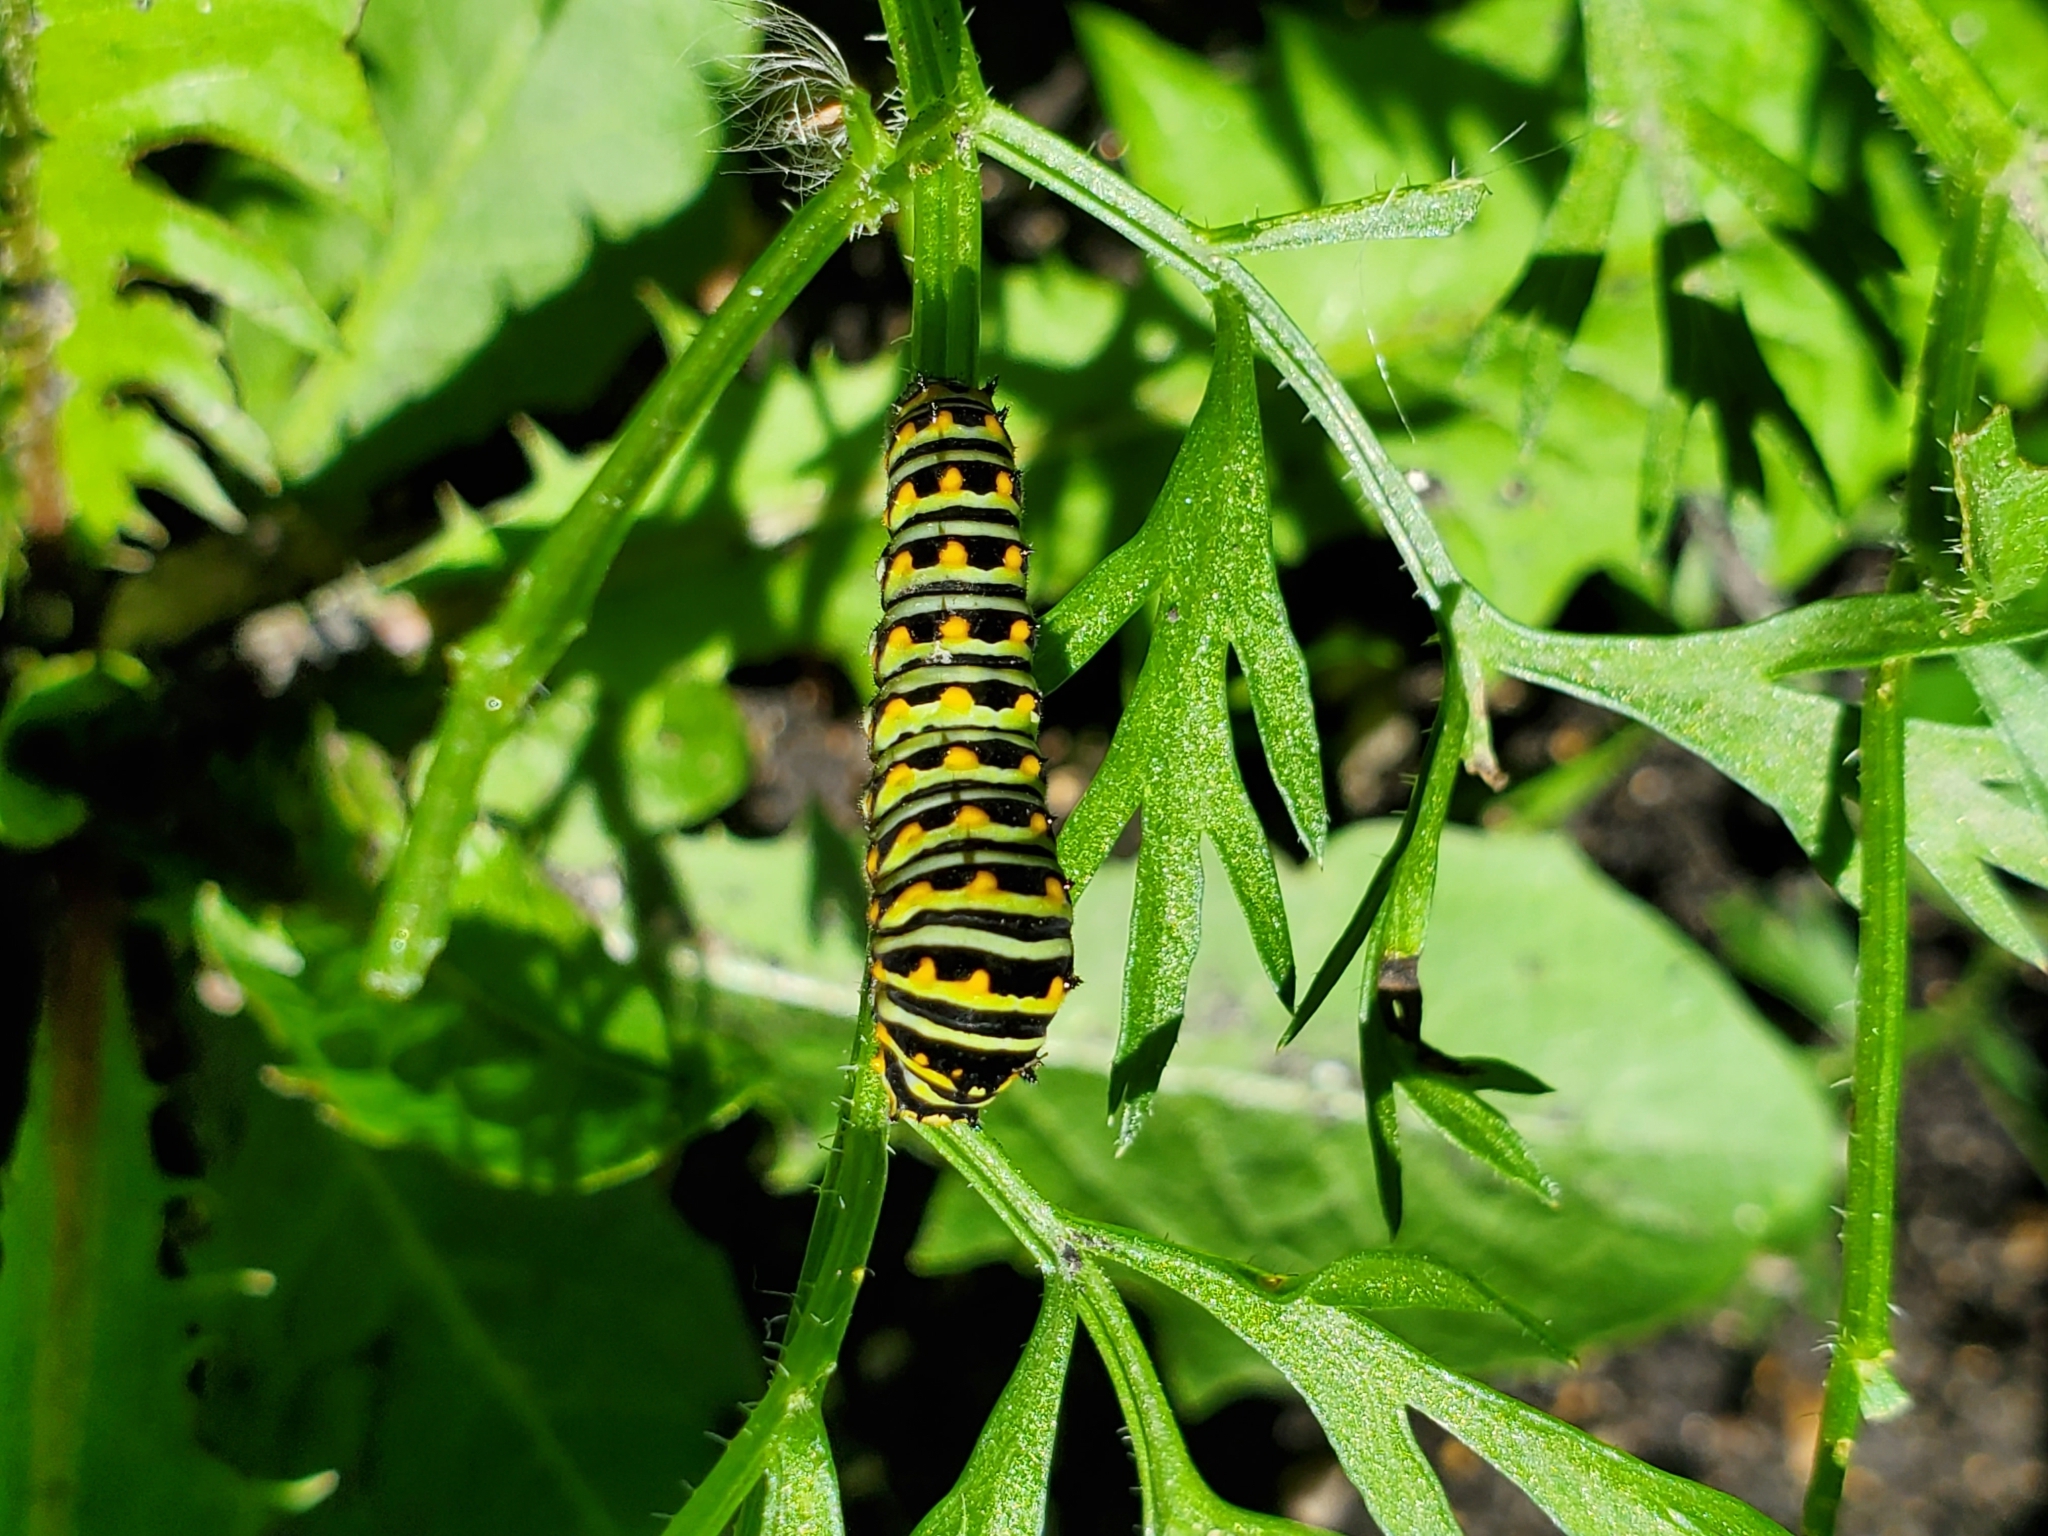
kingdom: Animalia
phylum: Arthropoda
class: Insecta
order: Lepidoptera
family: Papilionidae
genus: Papilio
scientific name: Papilio polyxenes
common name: Black swallowtail
